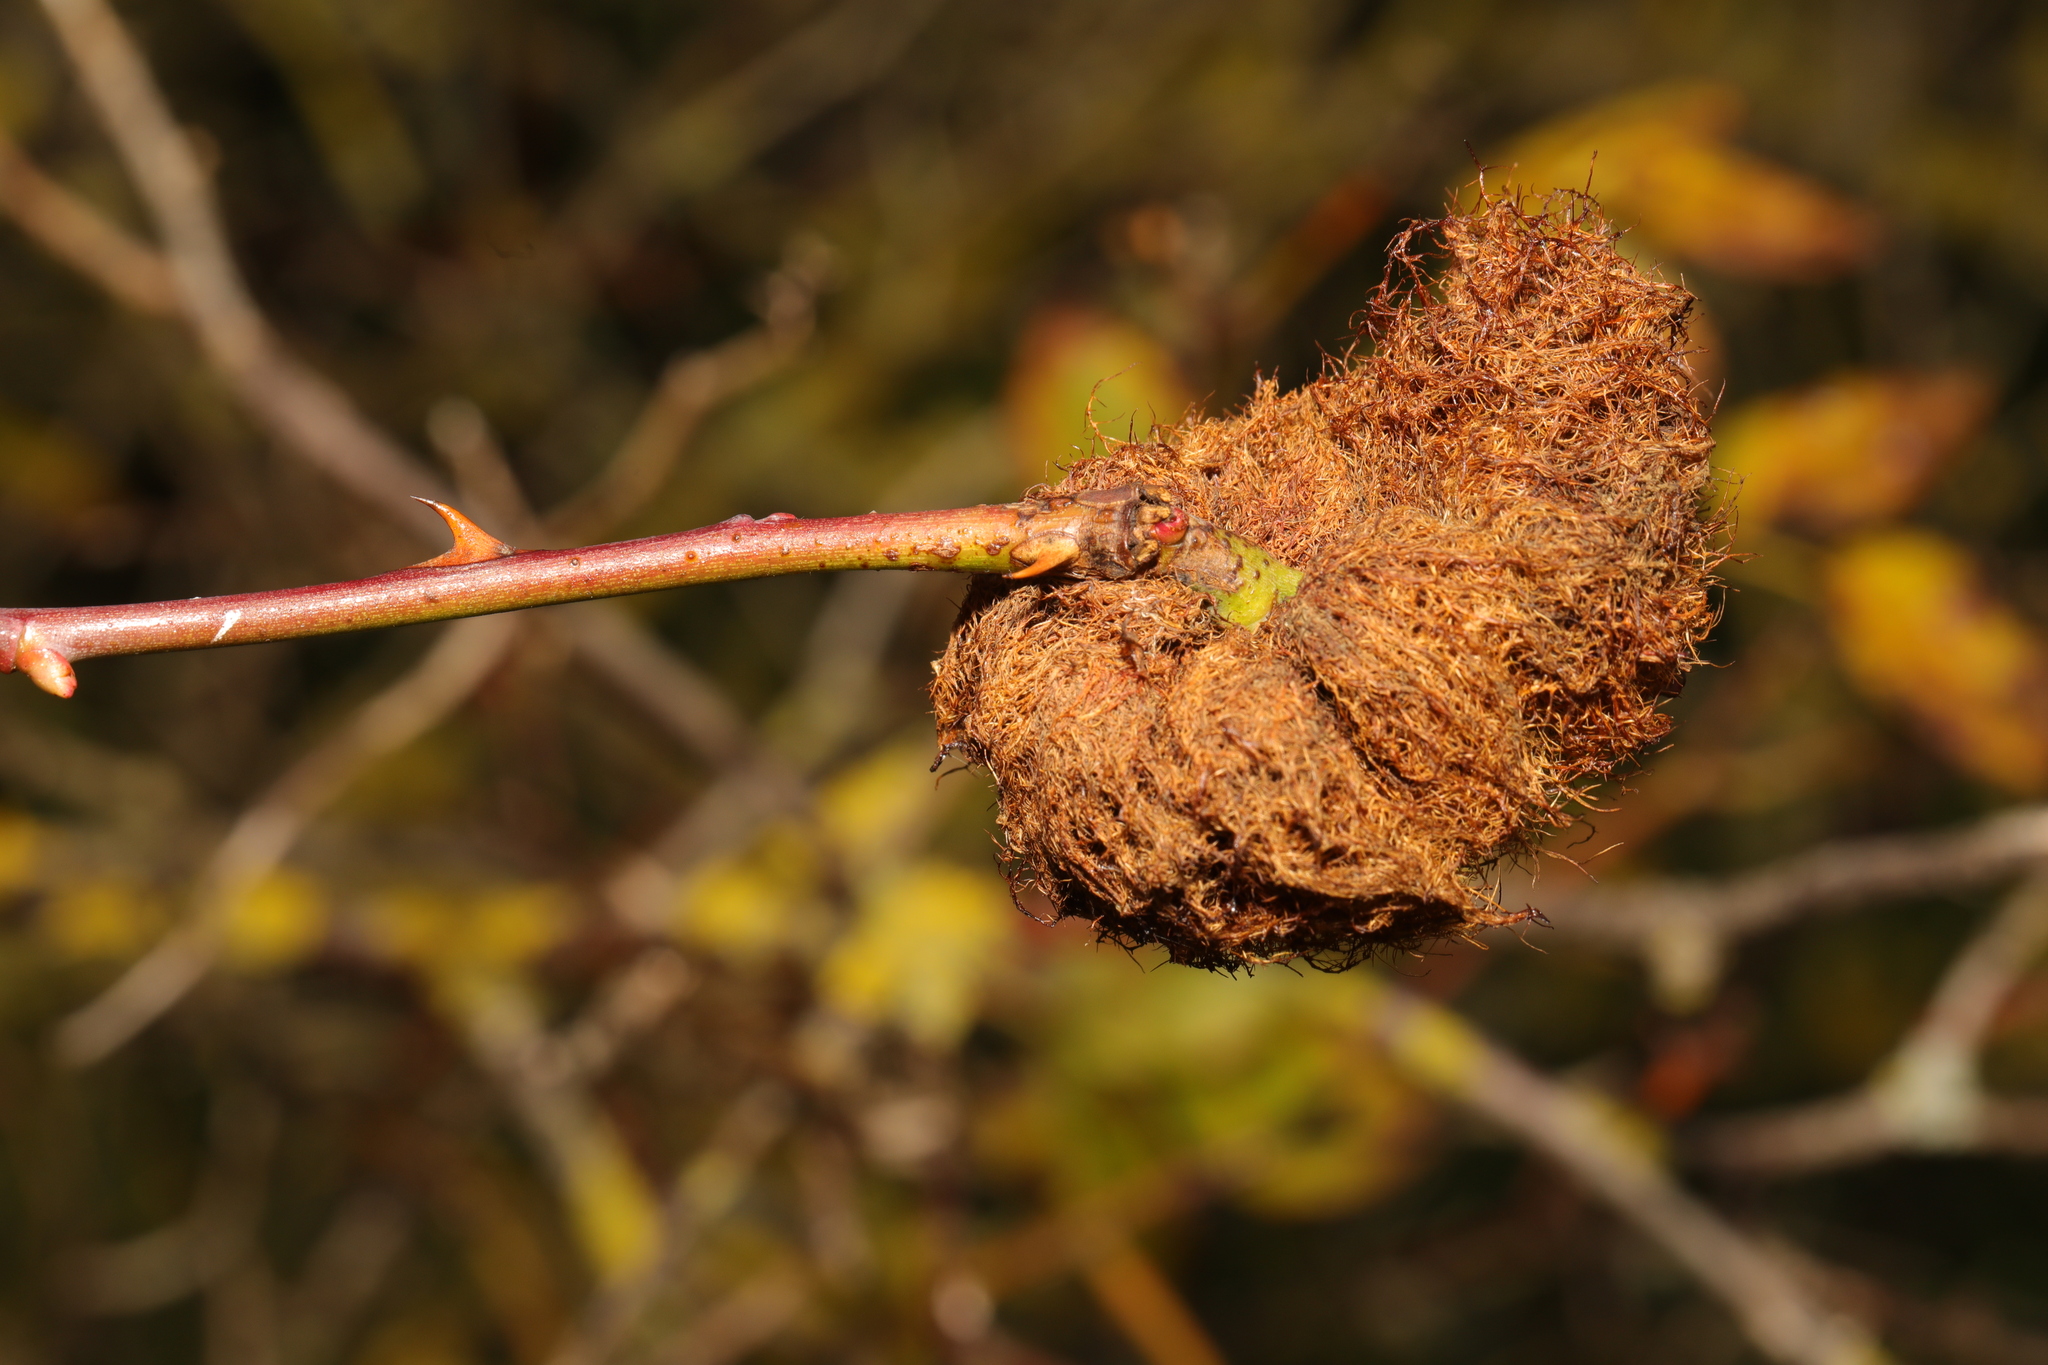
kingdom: Animalia
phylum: Arthropoda
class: Insecta
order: Hymenoptera
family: Cynipidae
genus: Diplolepis
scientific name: Diplolepis rosae
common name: Bedeguar gall
